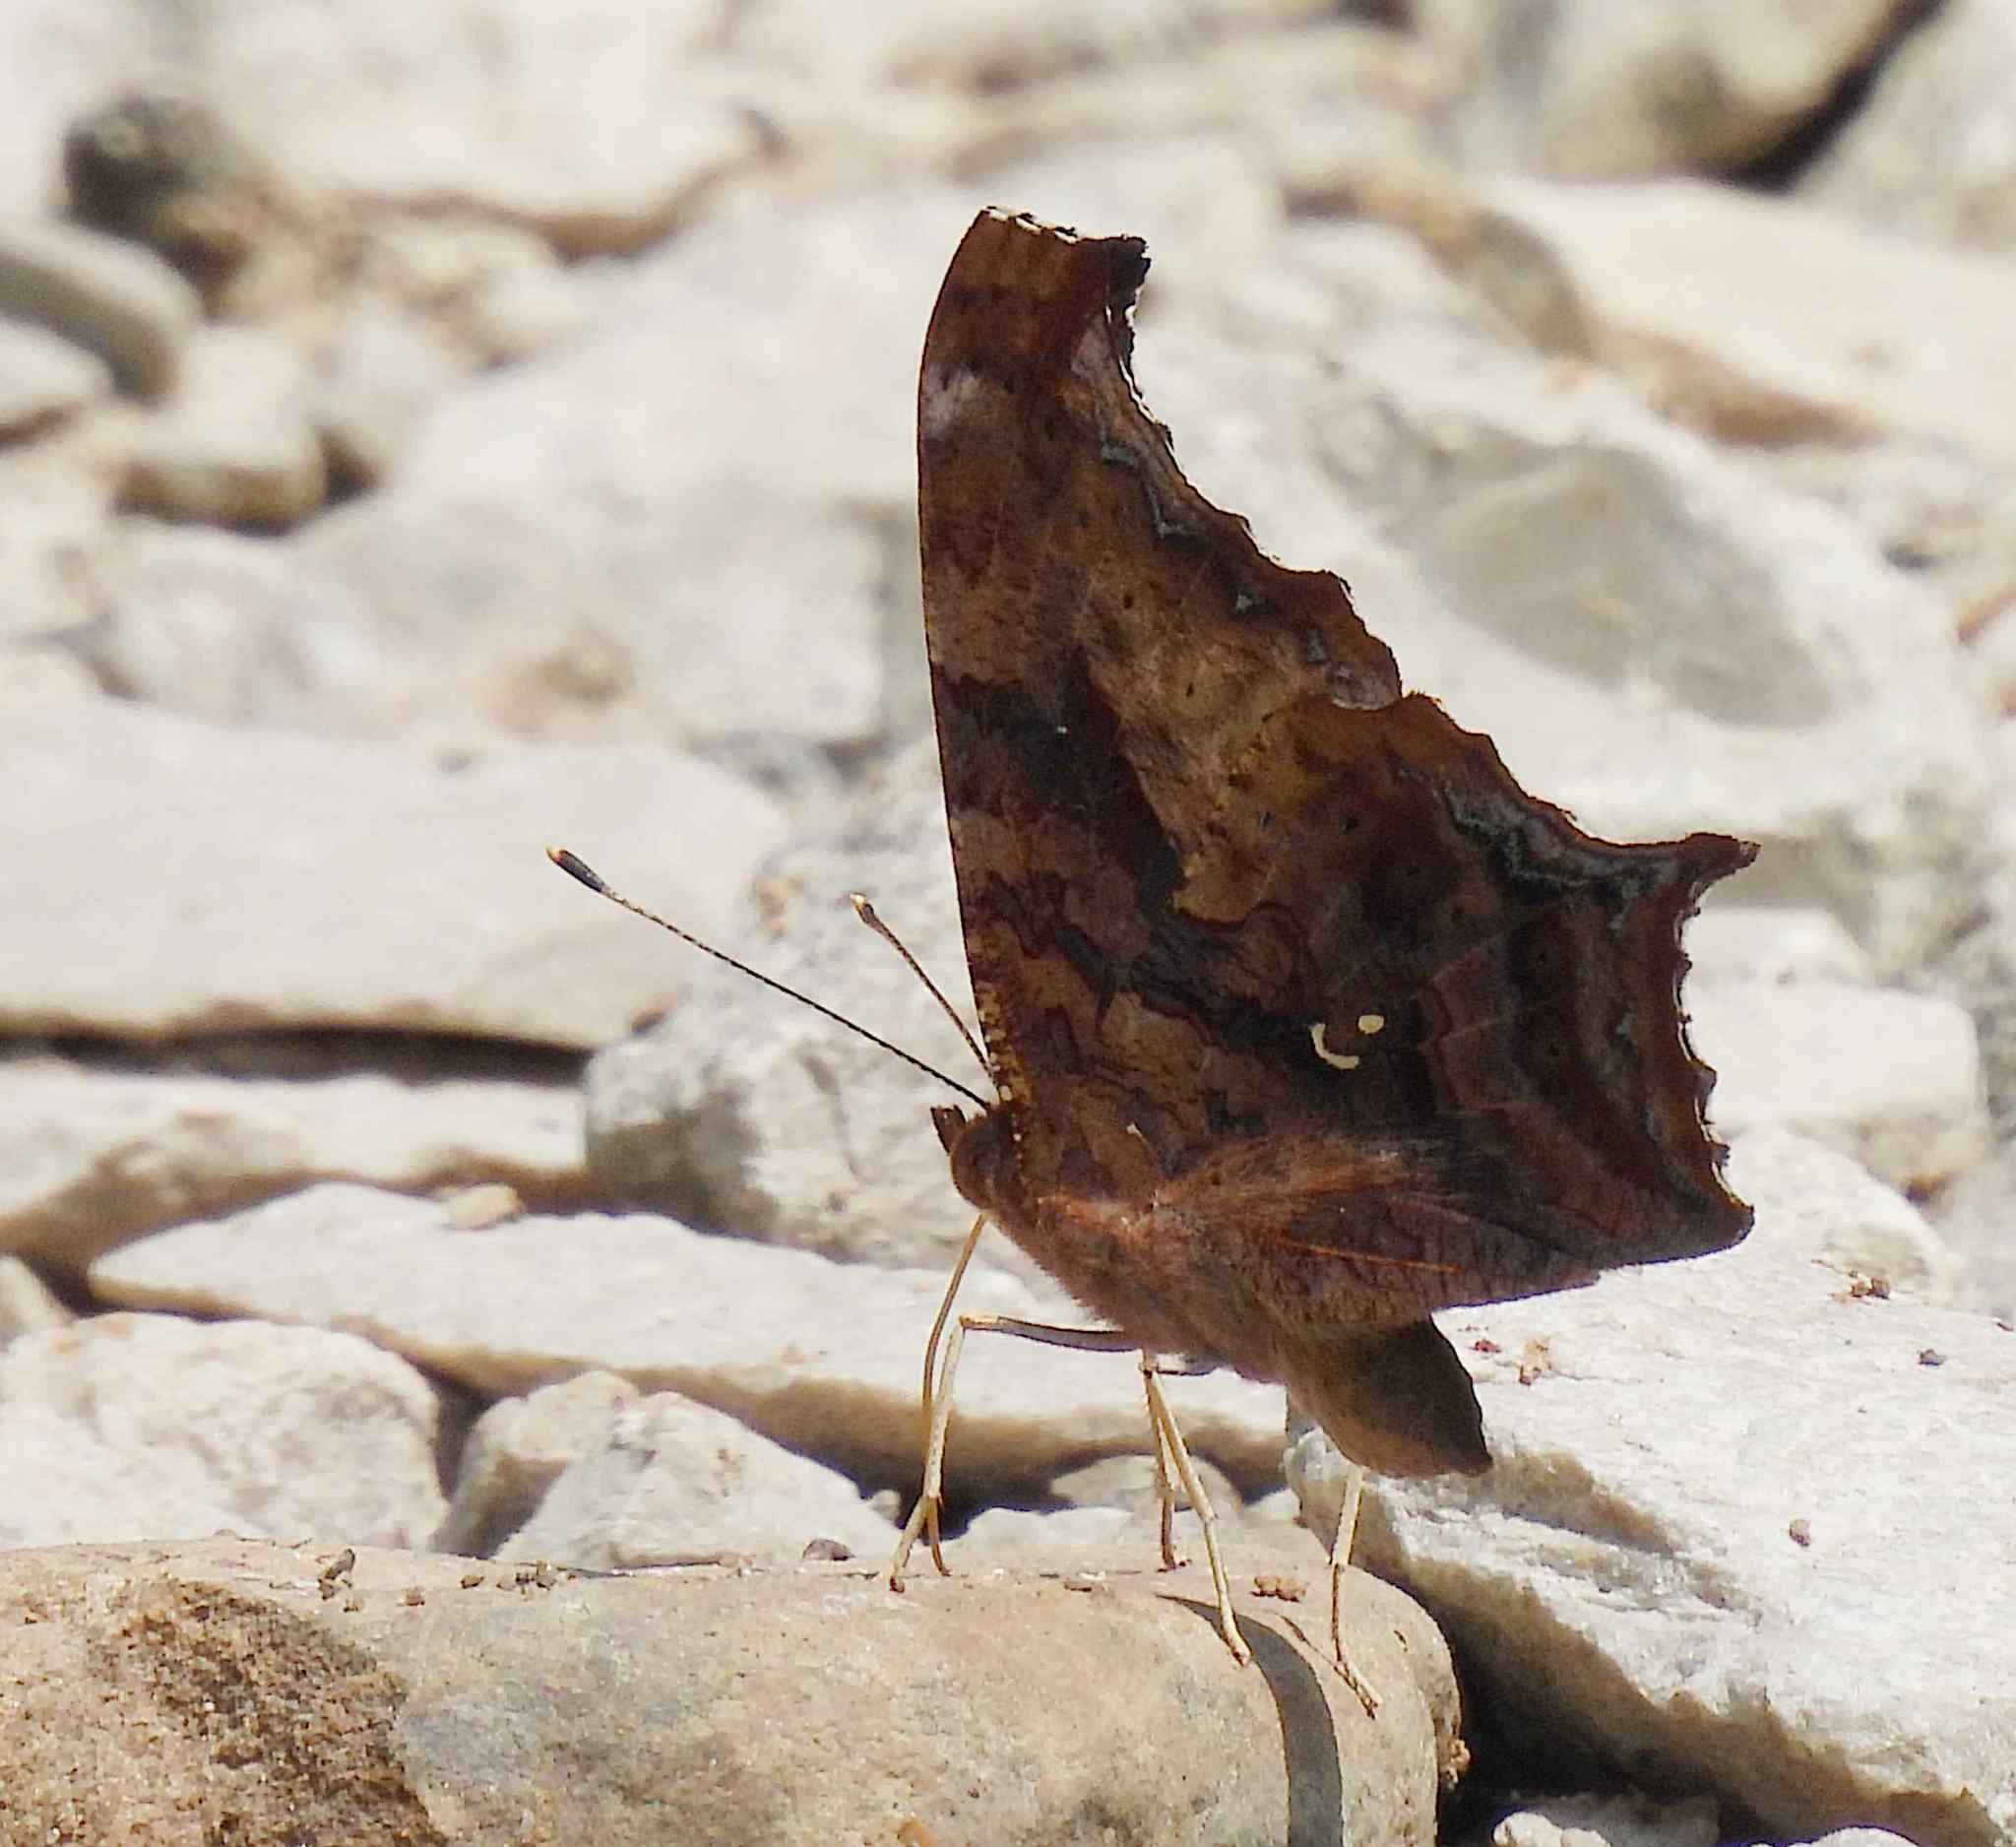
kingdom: Animalia
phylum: Arthropoda
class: Insecta
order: Lepidoptera
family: Nymphalidae
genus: Polygonia
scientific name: Polygonia interrogationis
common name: Question mark
